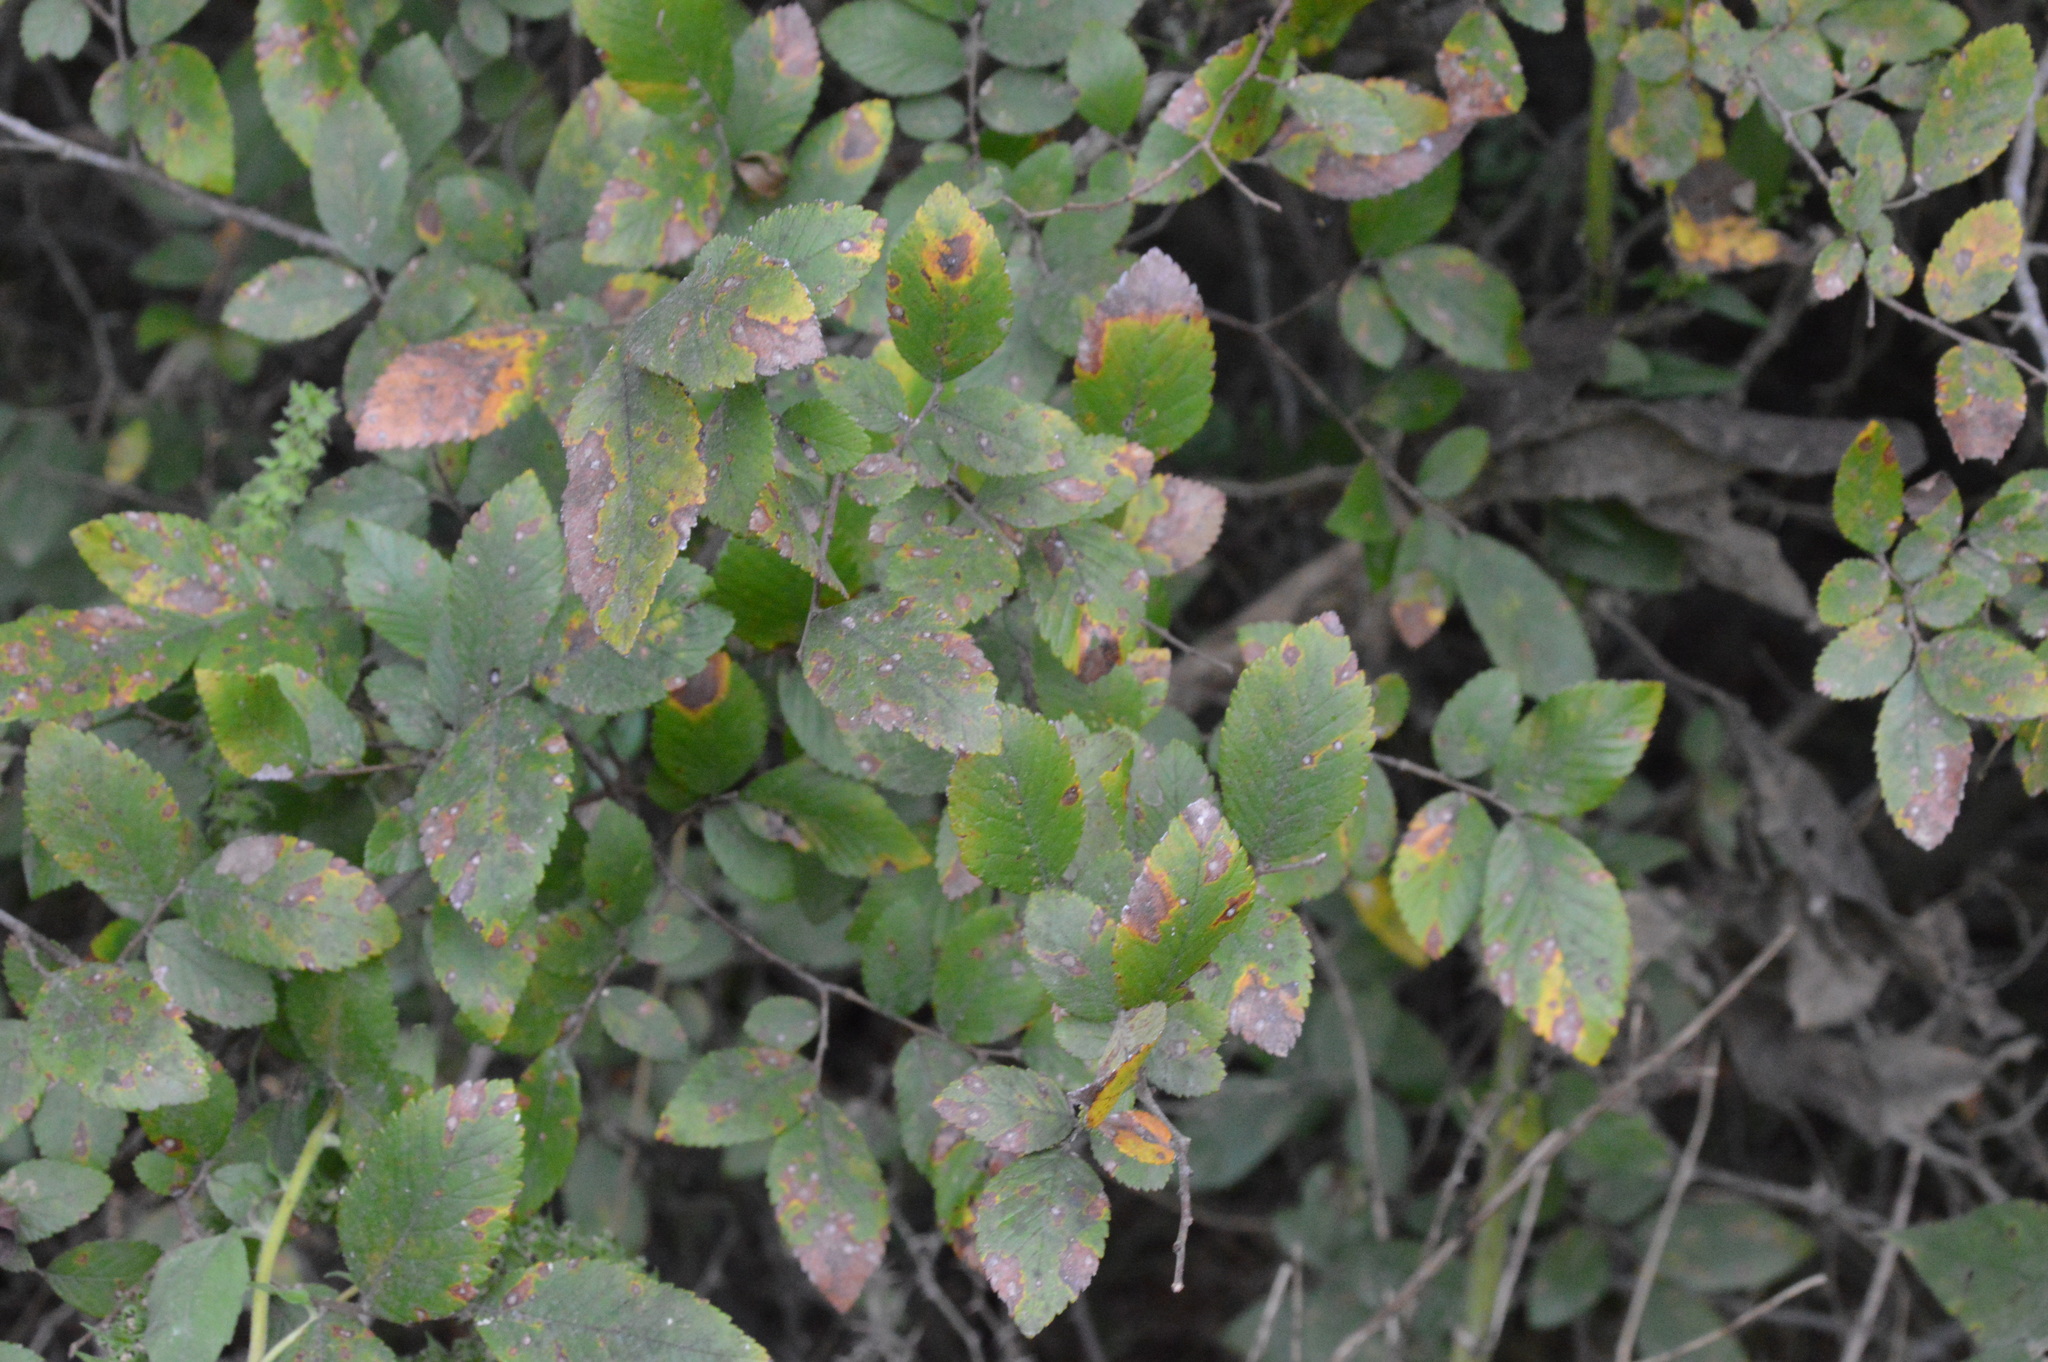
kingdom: Plantae
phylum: Tracheophyta
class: Magnoliopsida
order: Rosales
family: Ulmaceae
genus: Ulmus
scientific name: Ulmus crassifolia
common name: Basket elm
